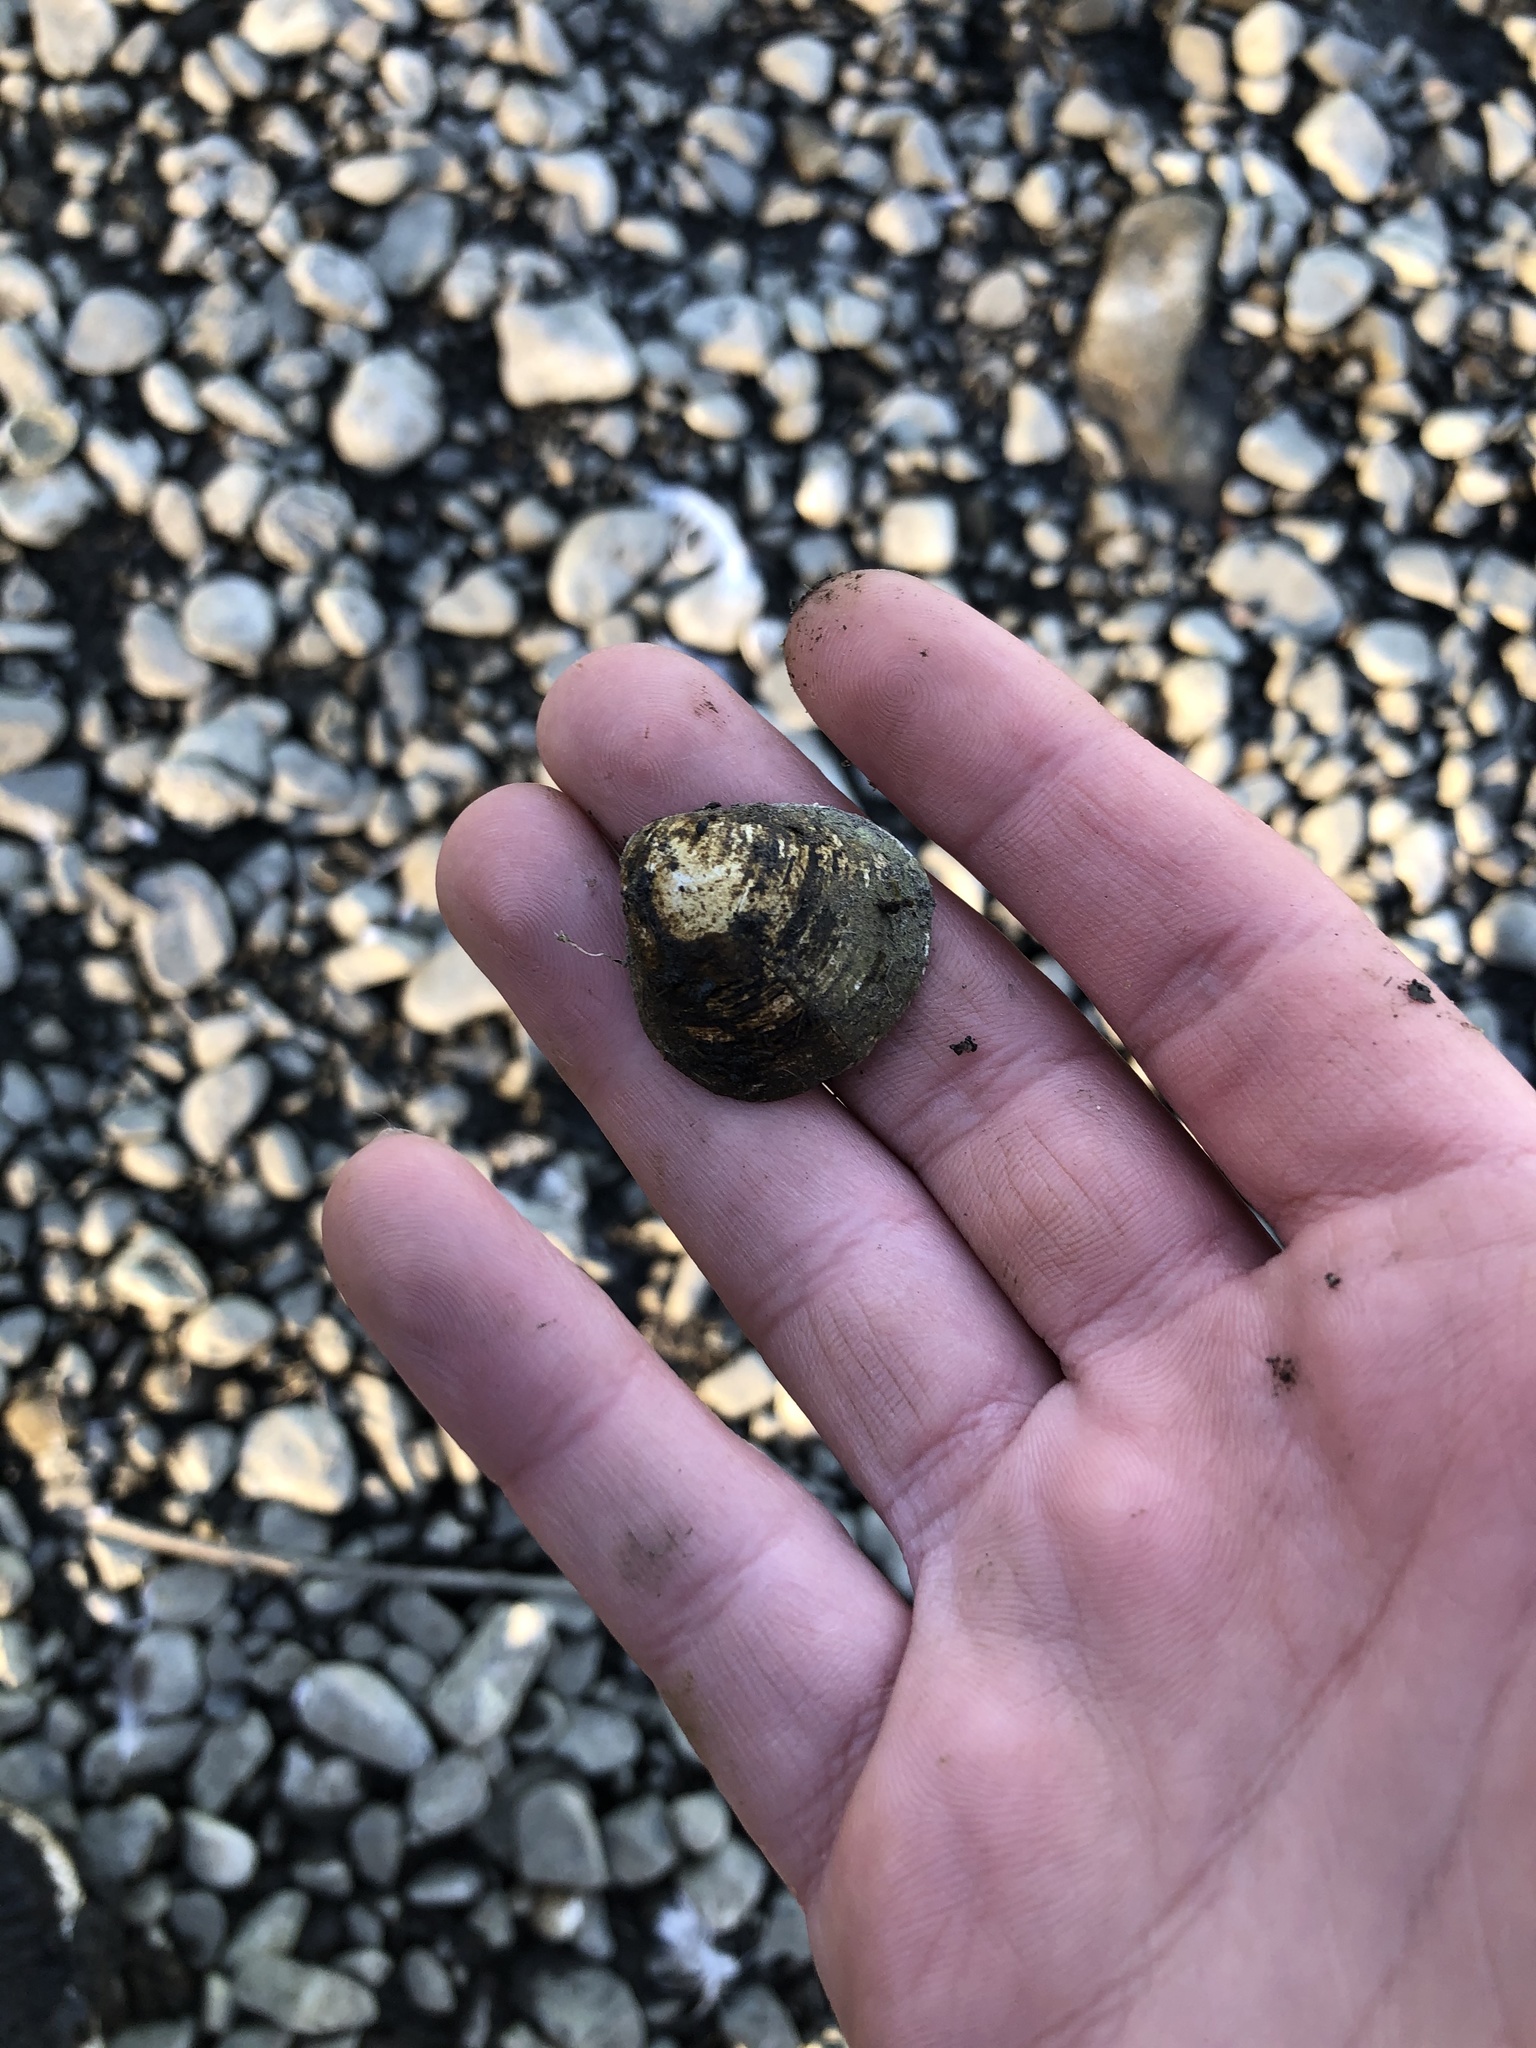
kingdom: Animalia
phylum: Mollusca
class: Bivalvia
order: Venerida
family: Cyrenidae
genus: Corbicula
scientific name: Corbicula fluminea
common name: Asian clam
